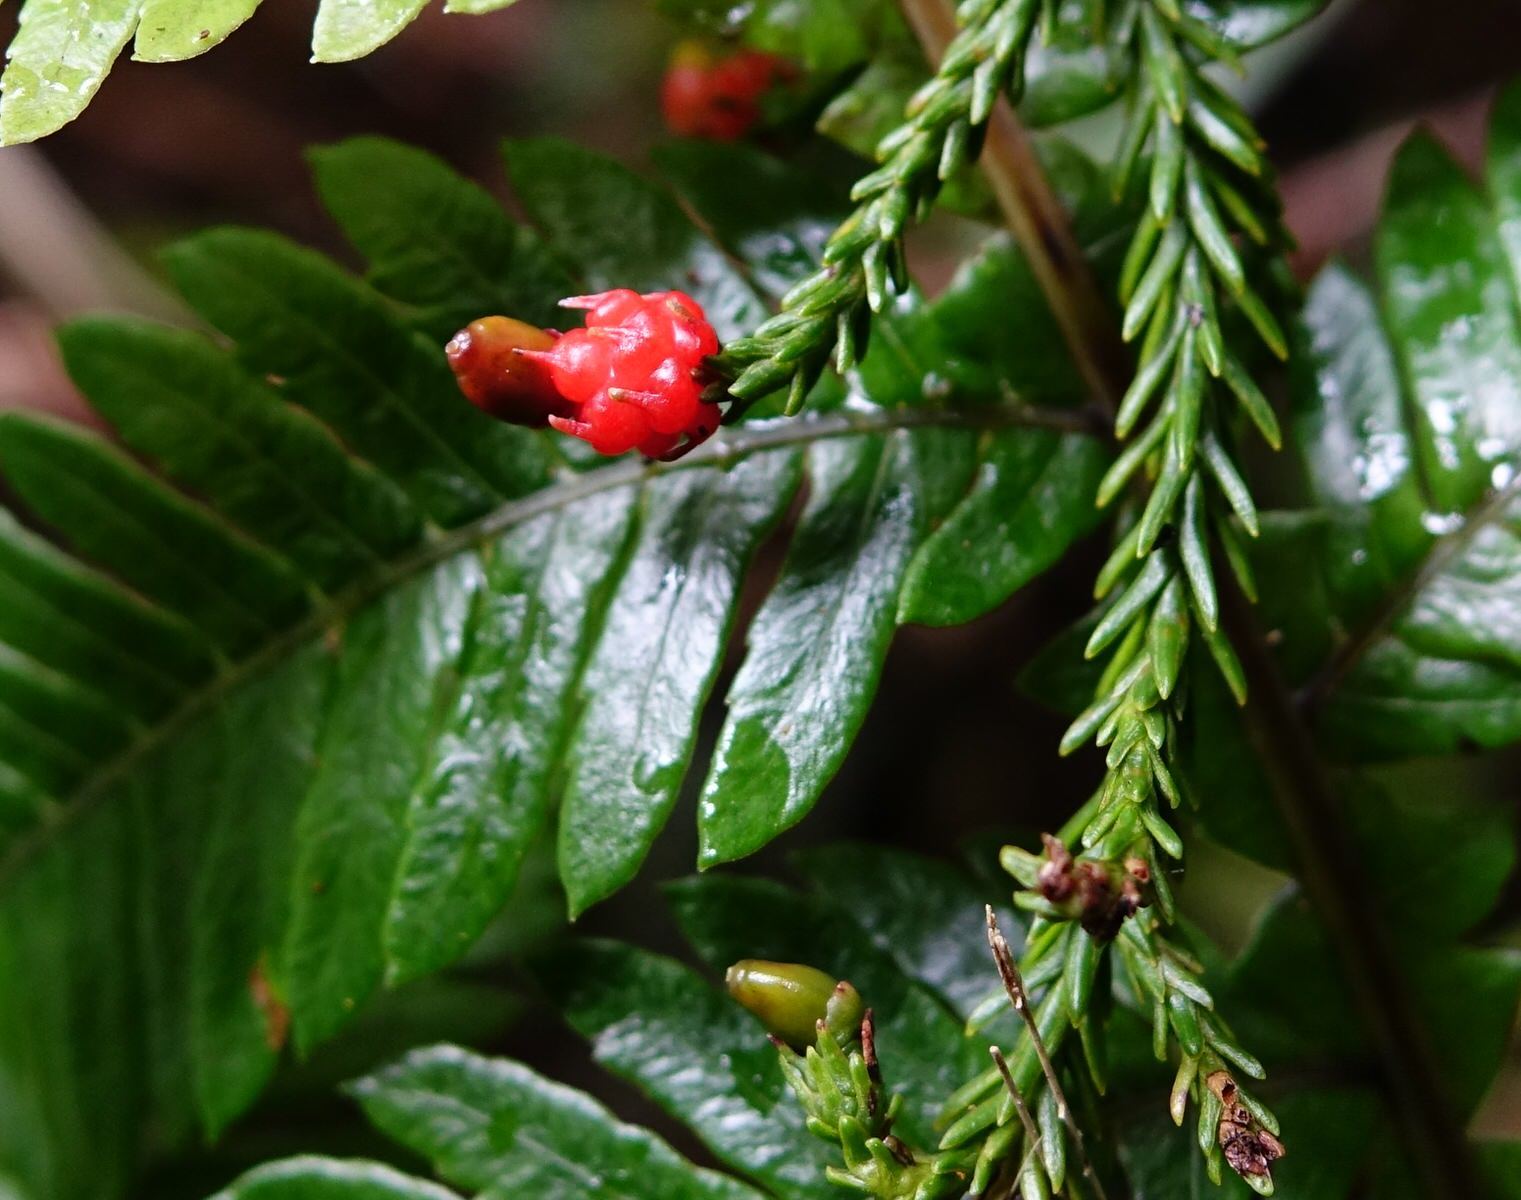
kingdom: Plantae
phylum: Tracheophyta
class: Pinopsida
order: Pinales
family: Podocarpaceae
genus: Dacrydium
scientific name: Dacrydium cupressinum
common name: Red pine
